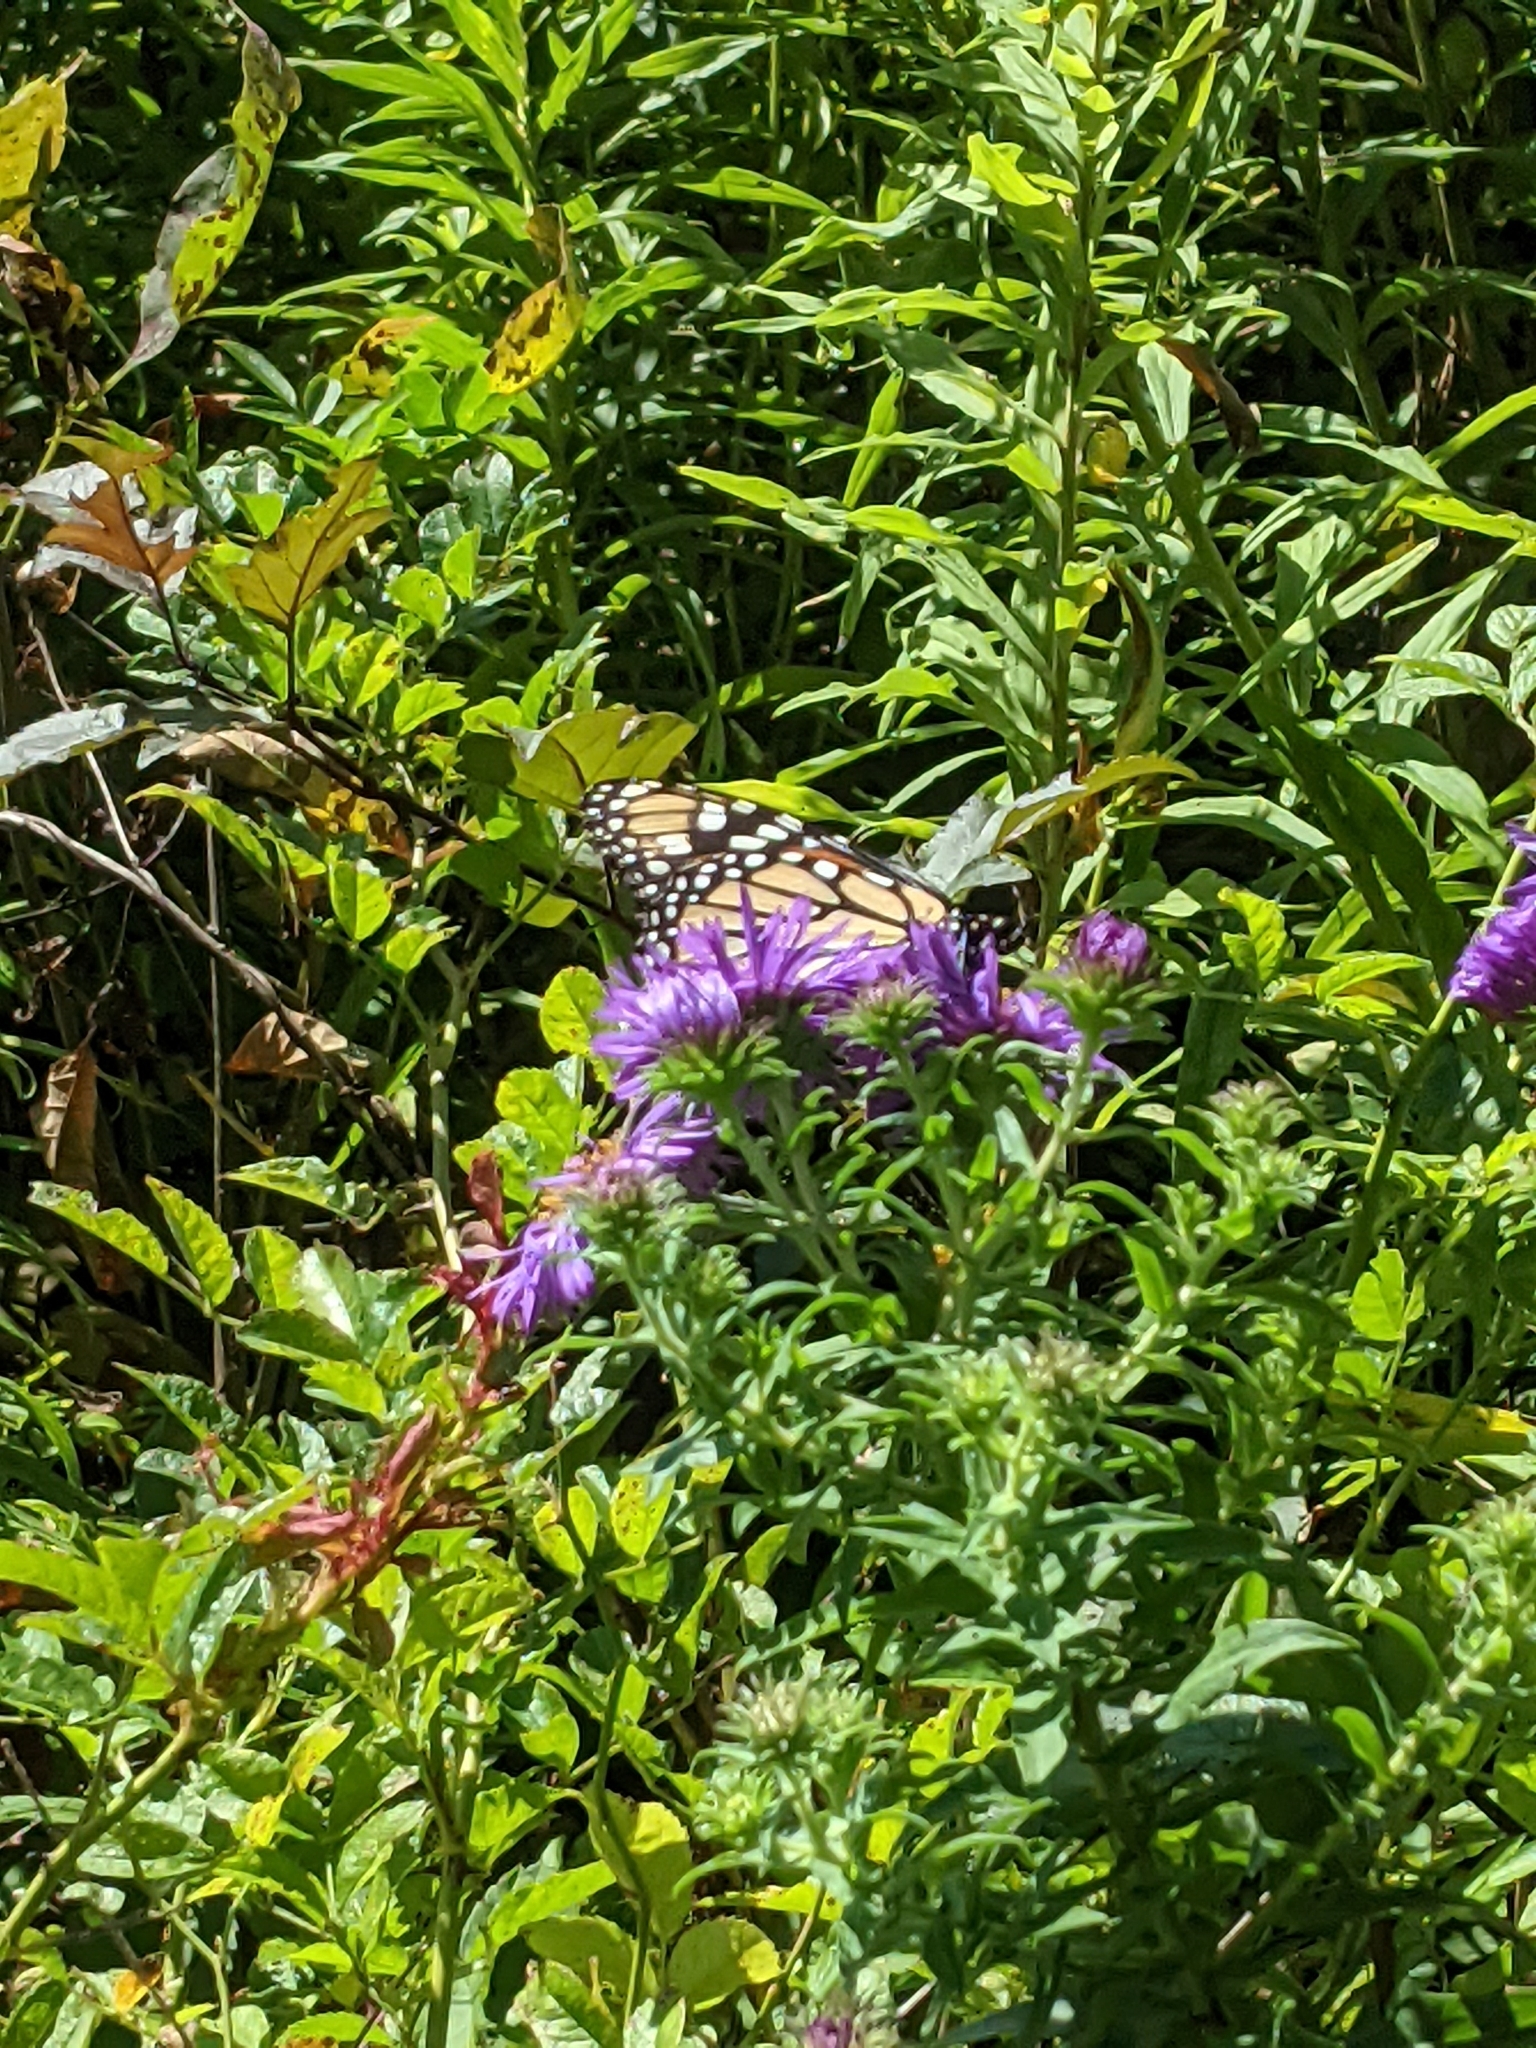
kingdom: Animalia
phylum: Arthropoda
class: Insecta
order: Lepidoptera
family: Nymphalidae
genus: Danaus
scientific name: Danaus plexippus
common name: Monarch
